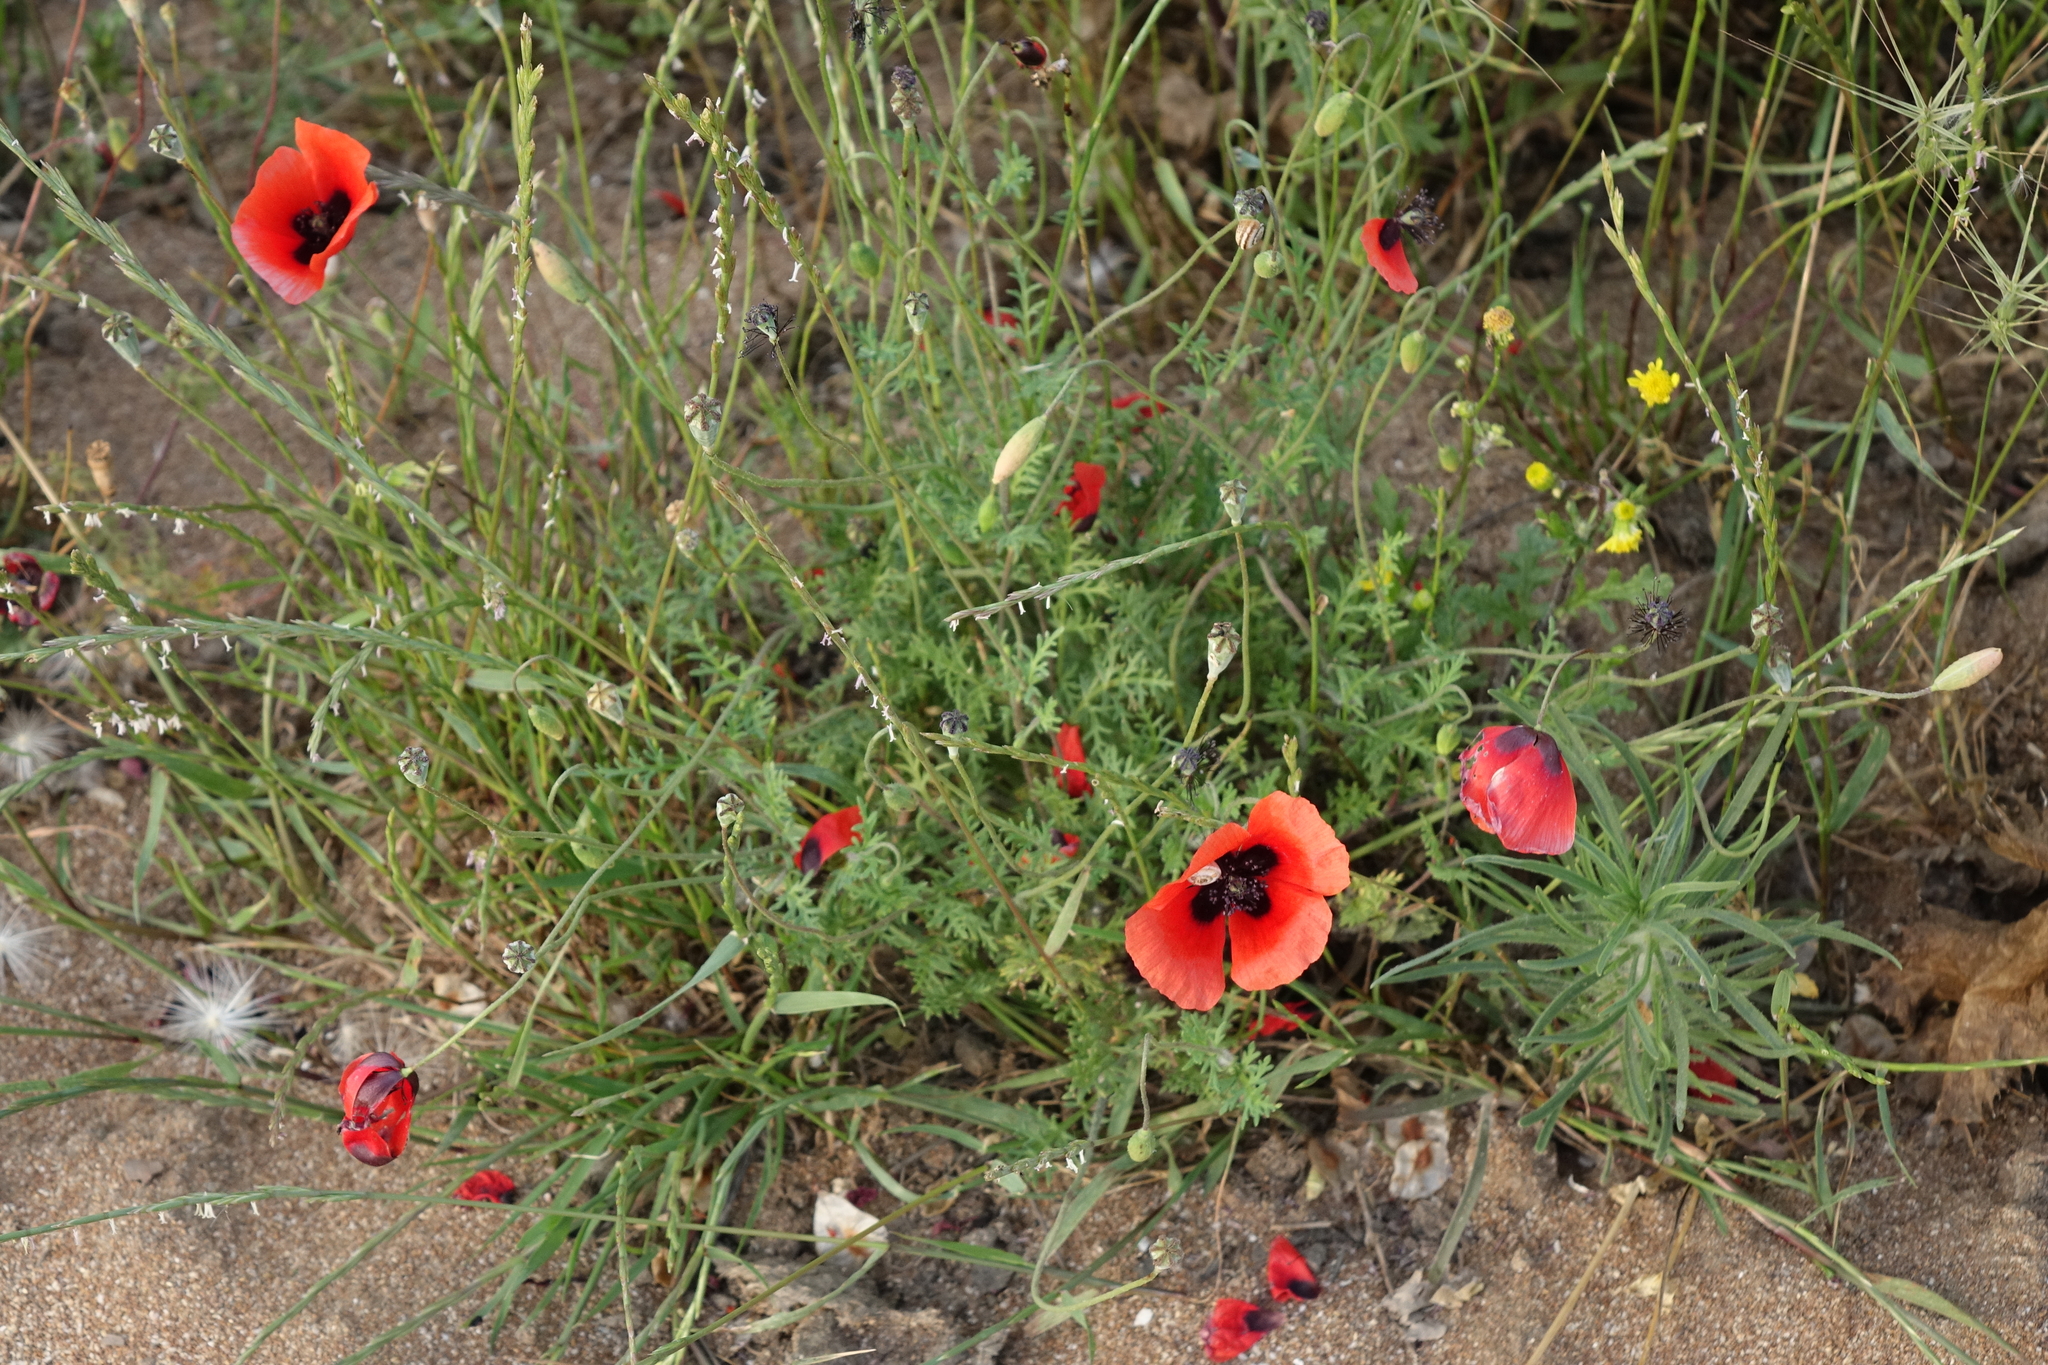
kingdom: Plantae
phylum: Tracheophyta
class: Magnoliopsida
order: Ranunculales
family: Papaveraceae
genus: Papaver
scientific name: Papaver arenarium
